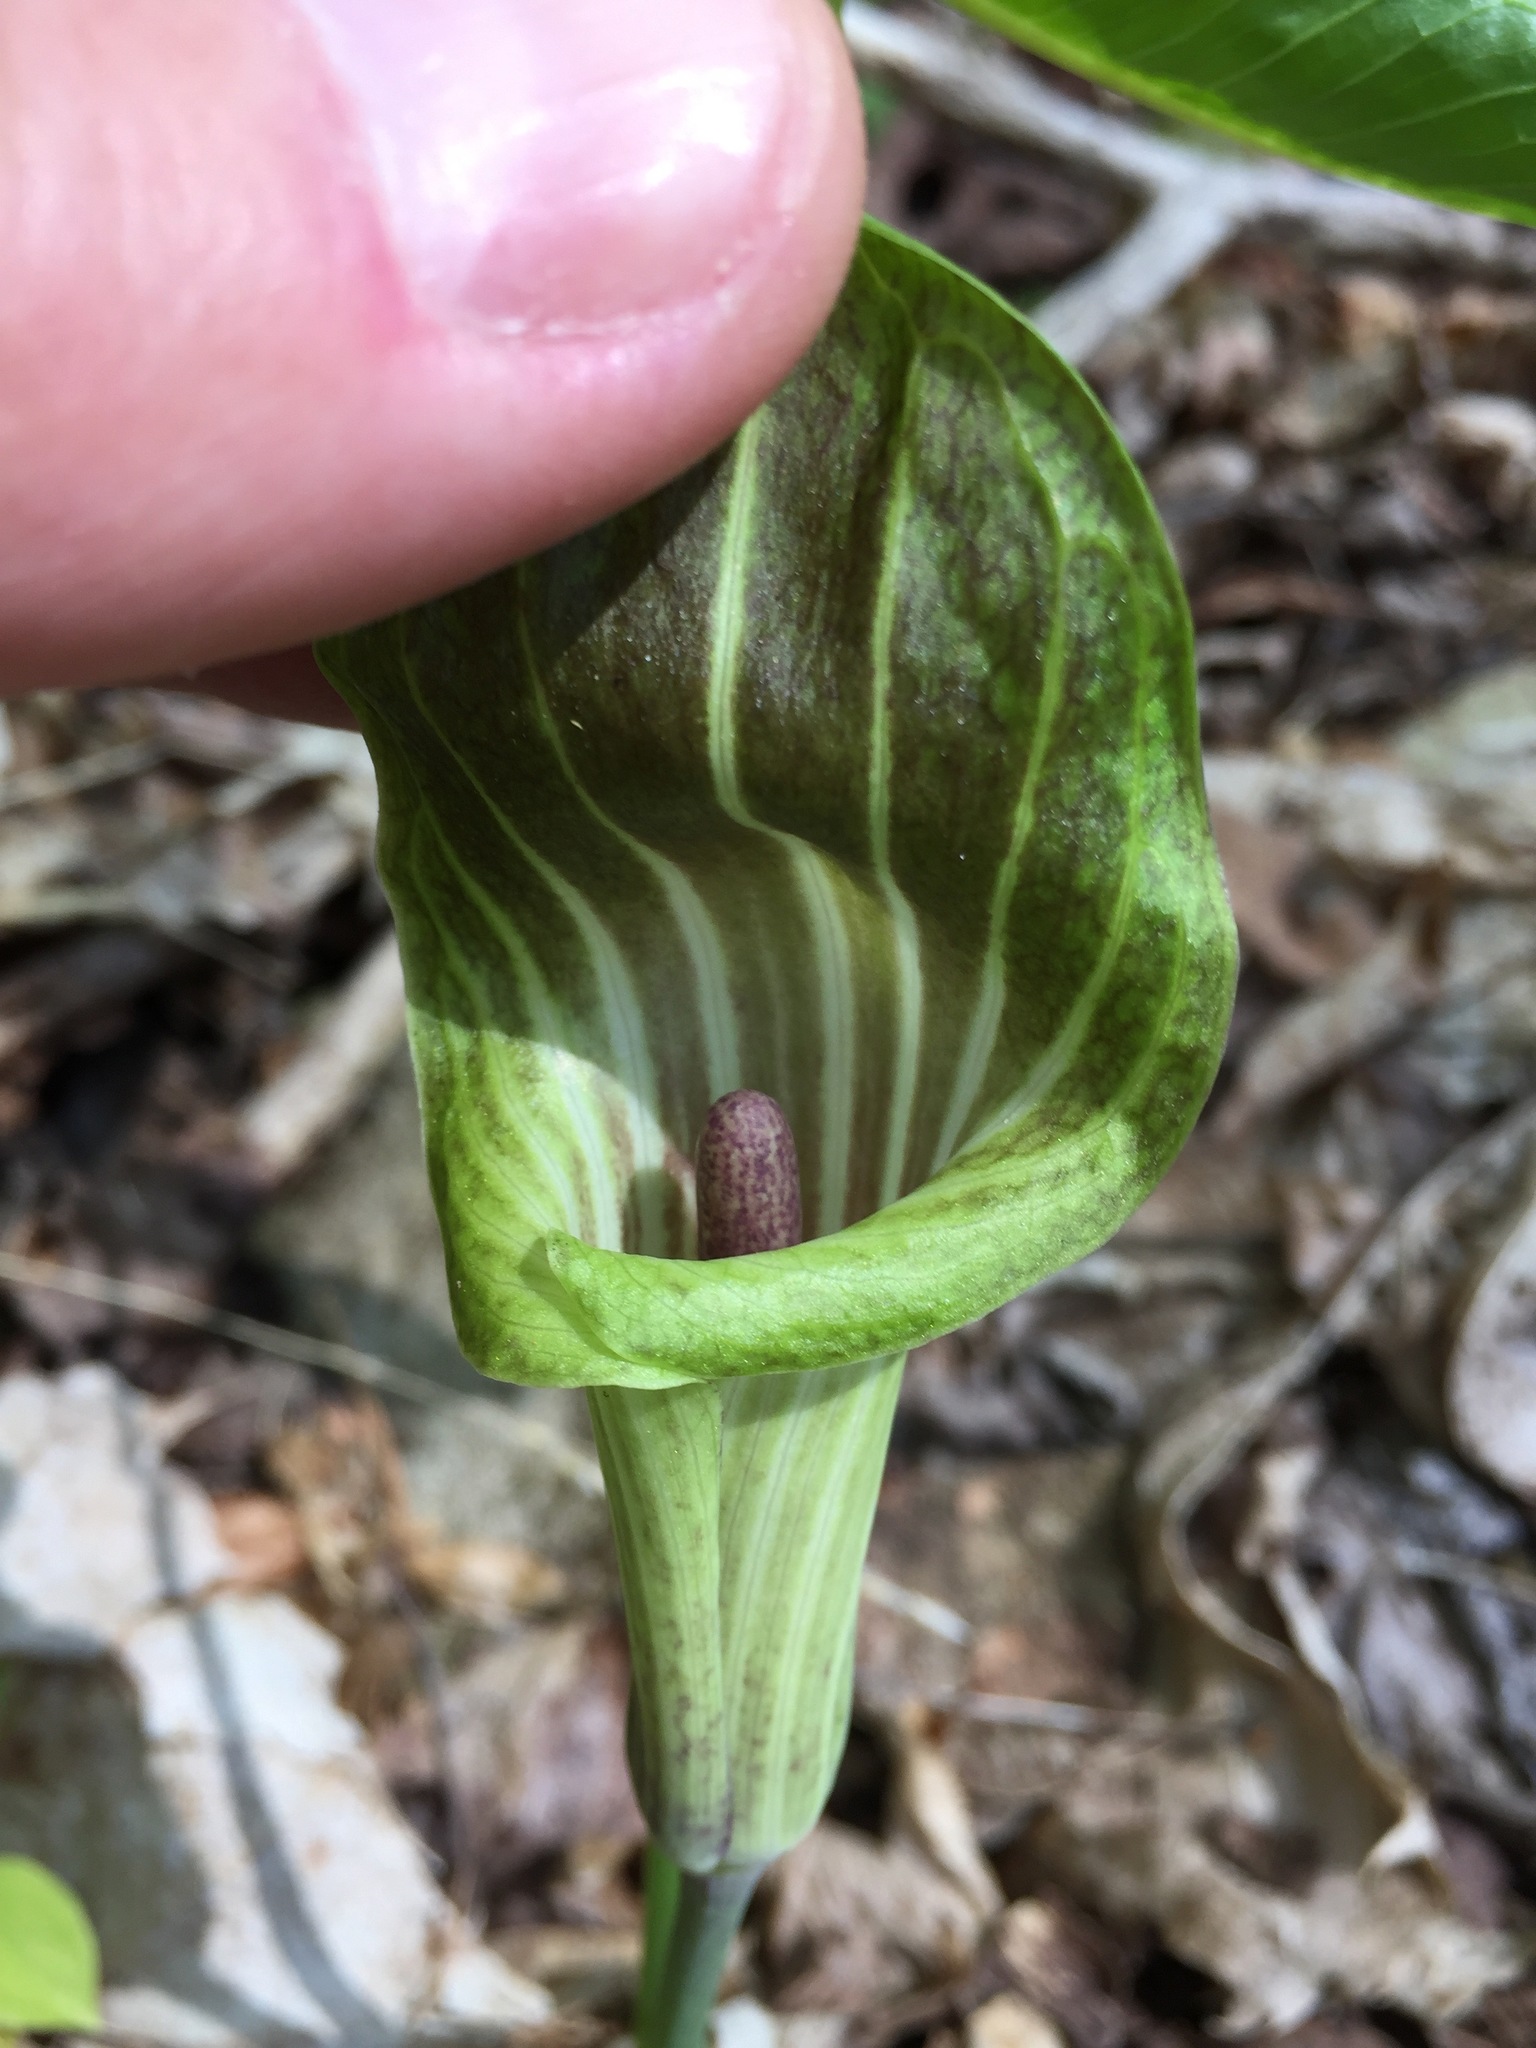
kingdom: Plantae
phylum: Tracheophyta
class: Liliopsida
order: Alismatales
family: Araceae
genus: Arisaema
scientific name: Arisaema triphyllum
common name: Jack-in-the-pulpit
